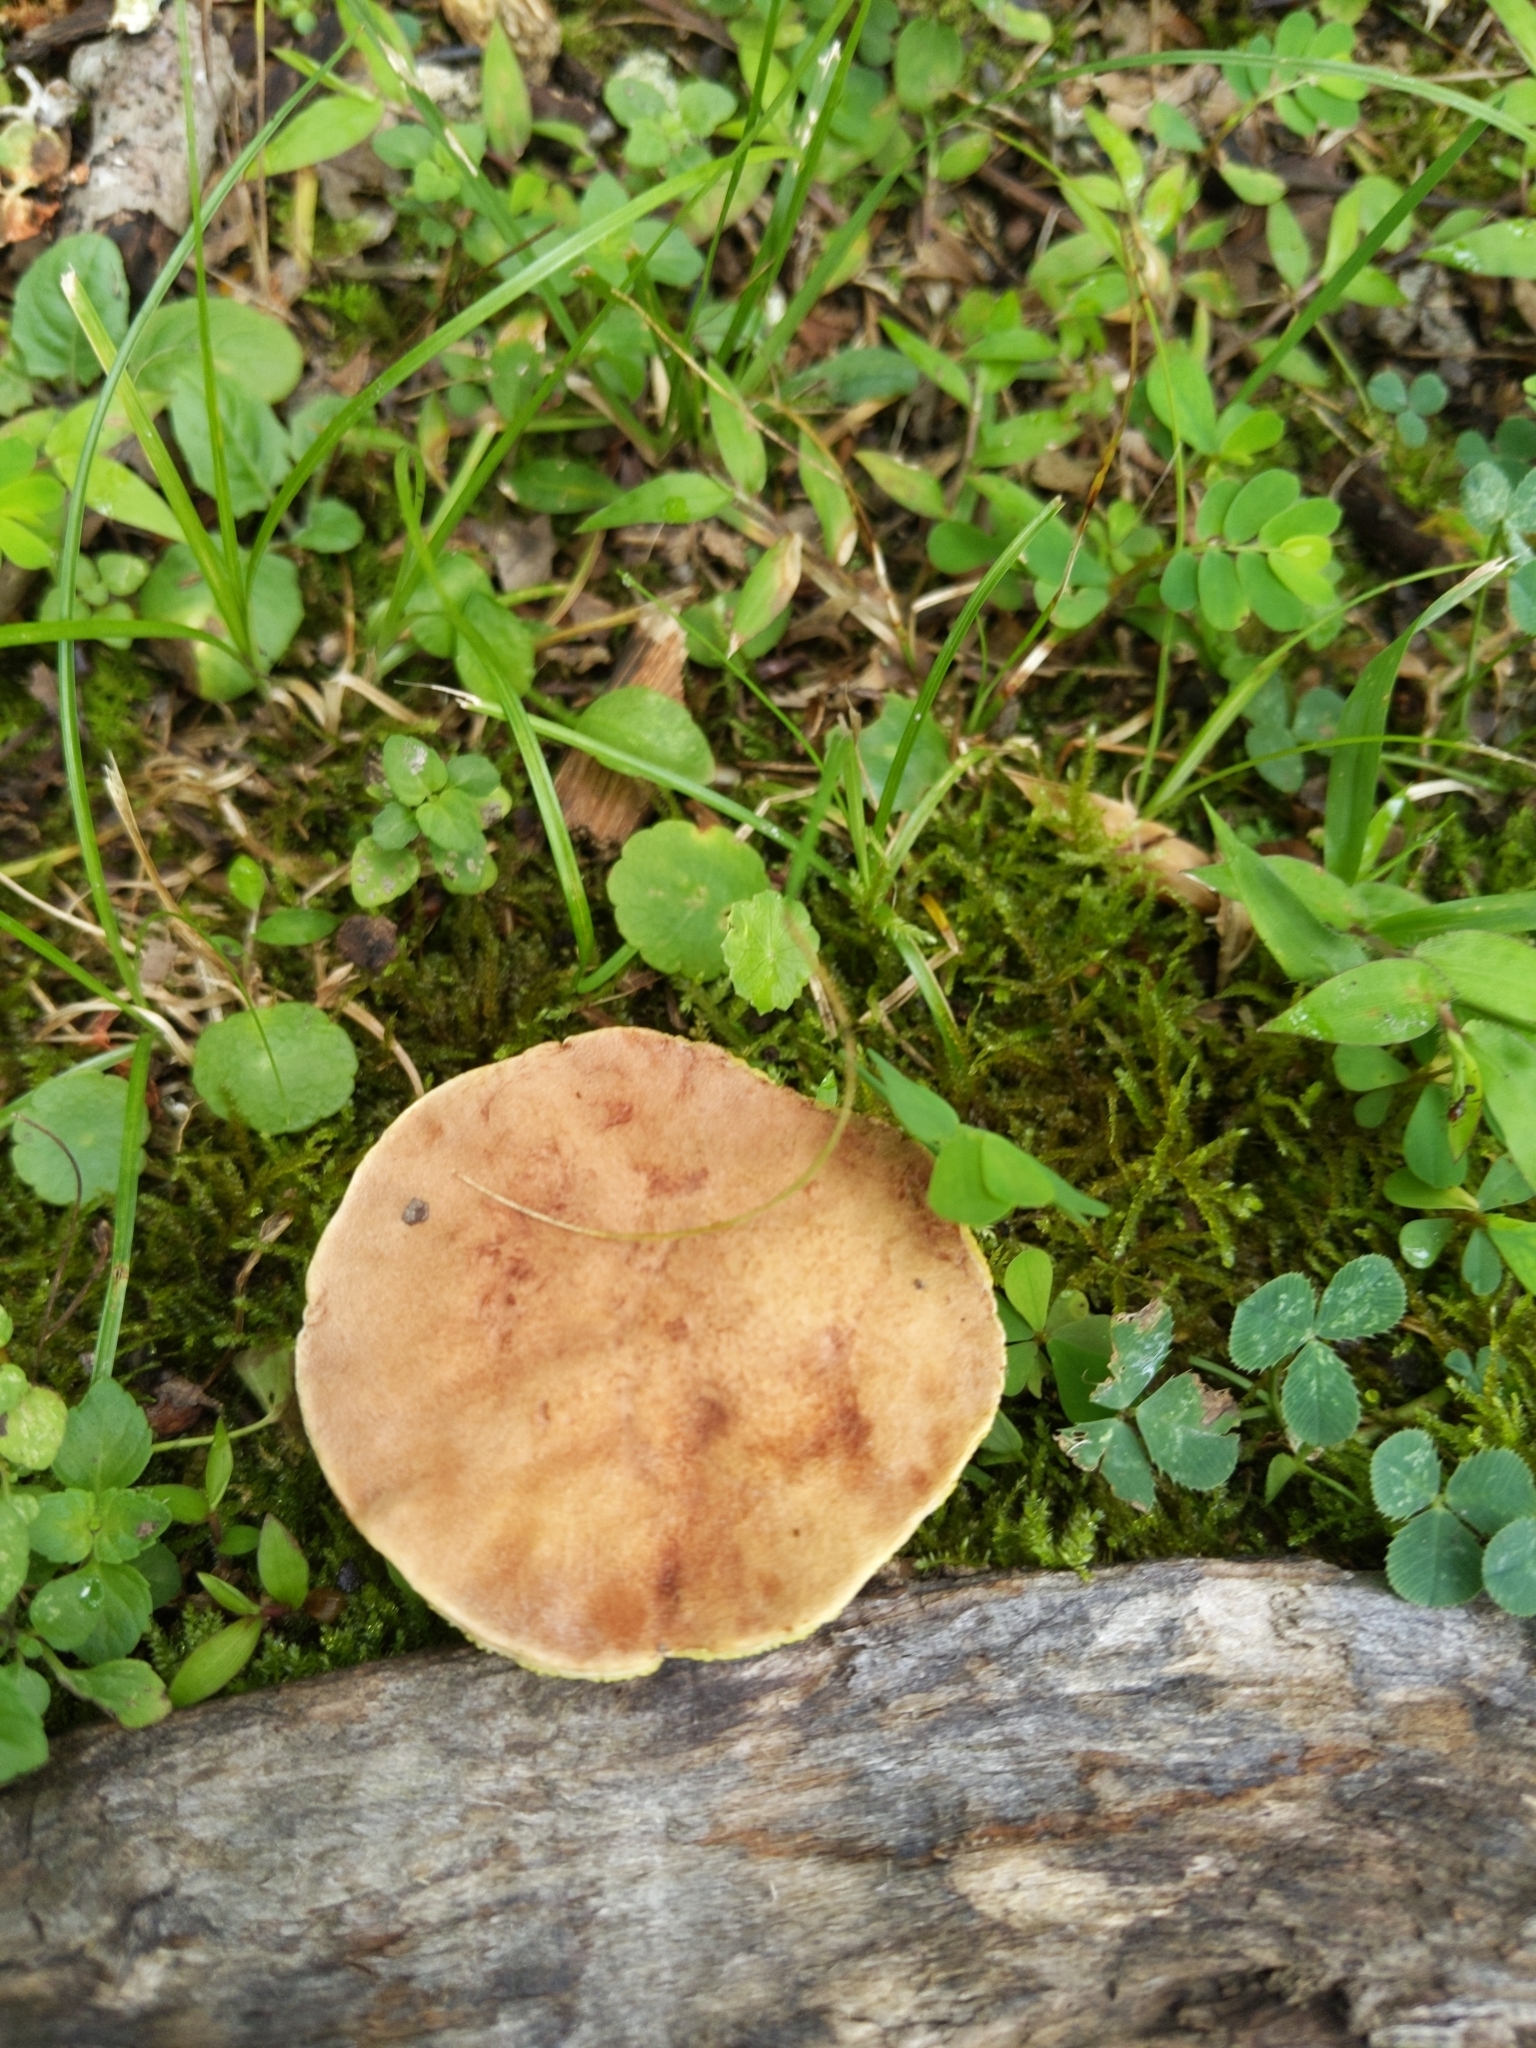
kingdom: Fungi
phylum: Basidiomycota
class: Agaricomycetes
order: Boletales
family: Boletaceae
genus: Aureoboletus
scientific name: Aureoboletus russellii
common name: Russell's bolete
